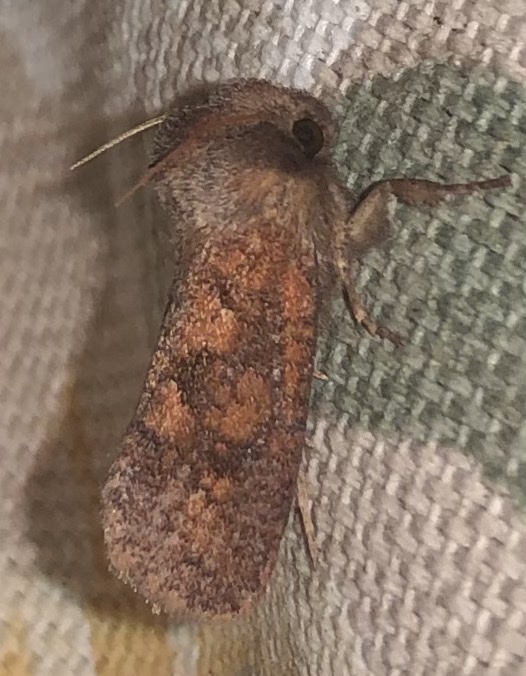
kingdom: Animalia
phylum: Arthropoda
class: Insecta
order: Lepidoptera
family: Tineidae
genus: Acrolophus
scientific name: Acrolophus plumifrontella
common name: Eastern grass tubeworm moth
